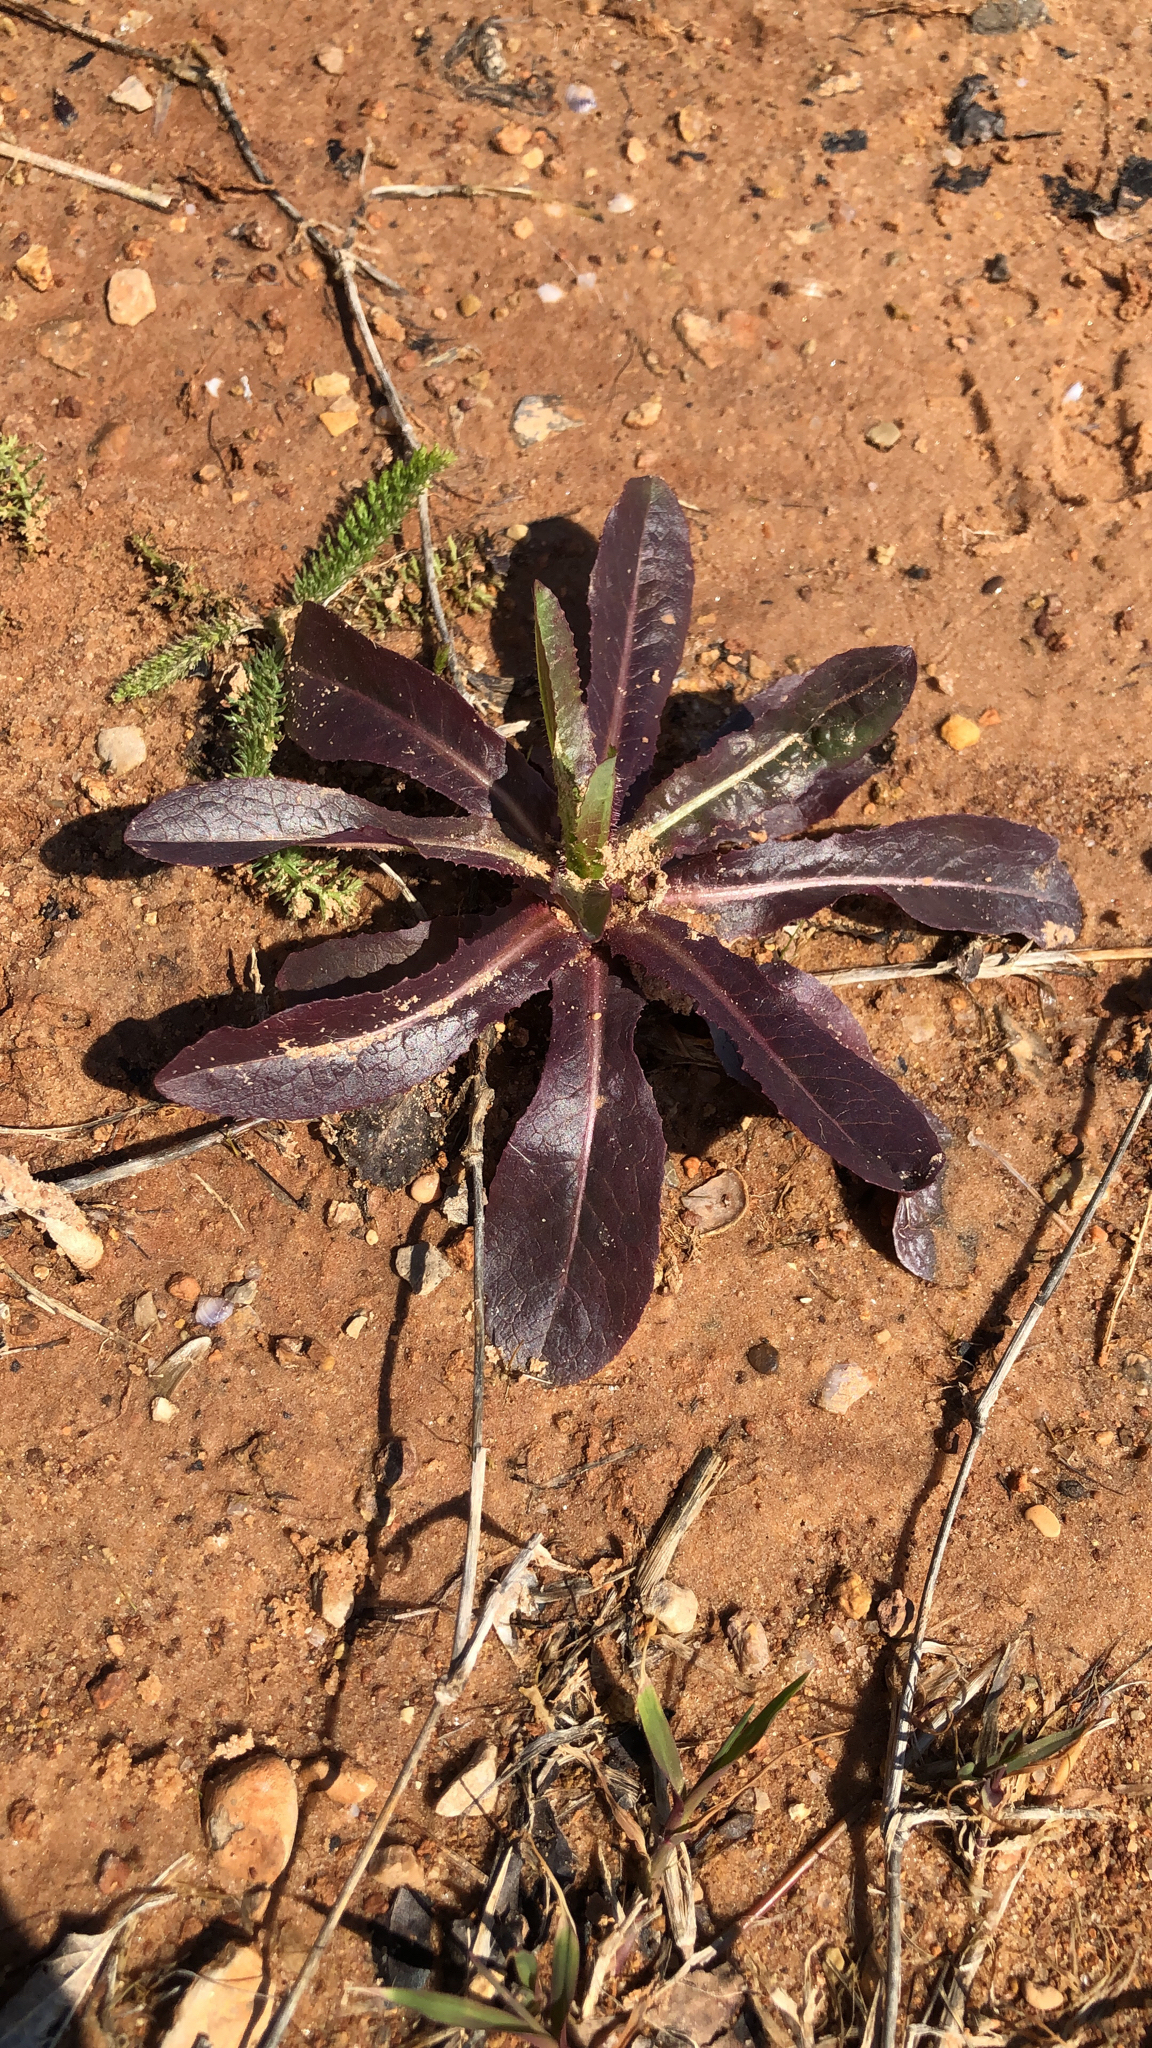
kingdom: Plantae
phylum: Tracheophyta
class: Magnoliopsida
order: Asterales
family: Asteraceae
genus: Lactuca
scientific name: Lactuca serriola
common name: Prickly lettuce
